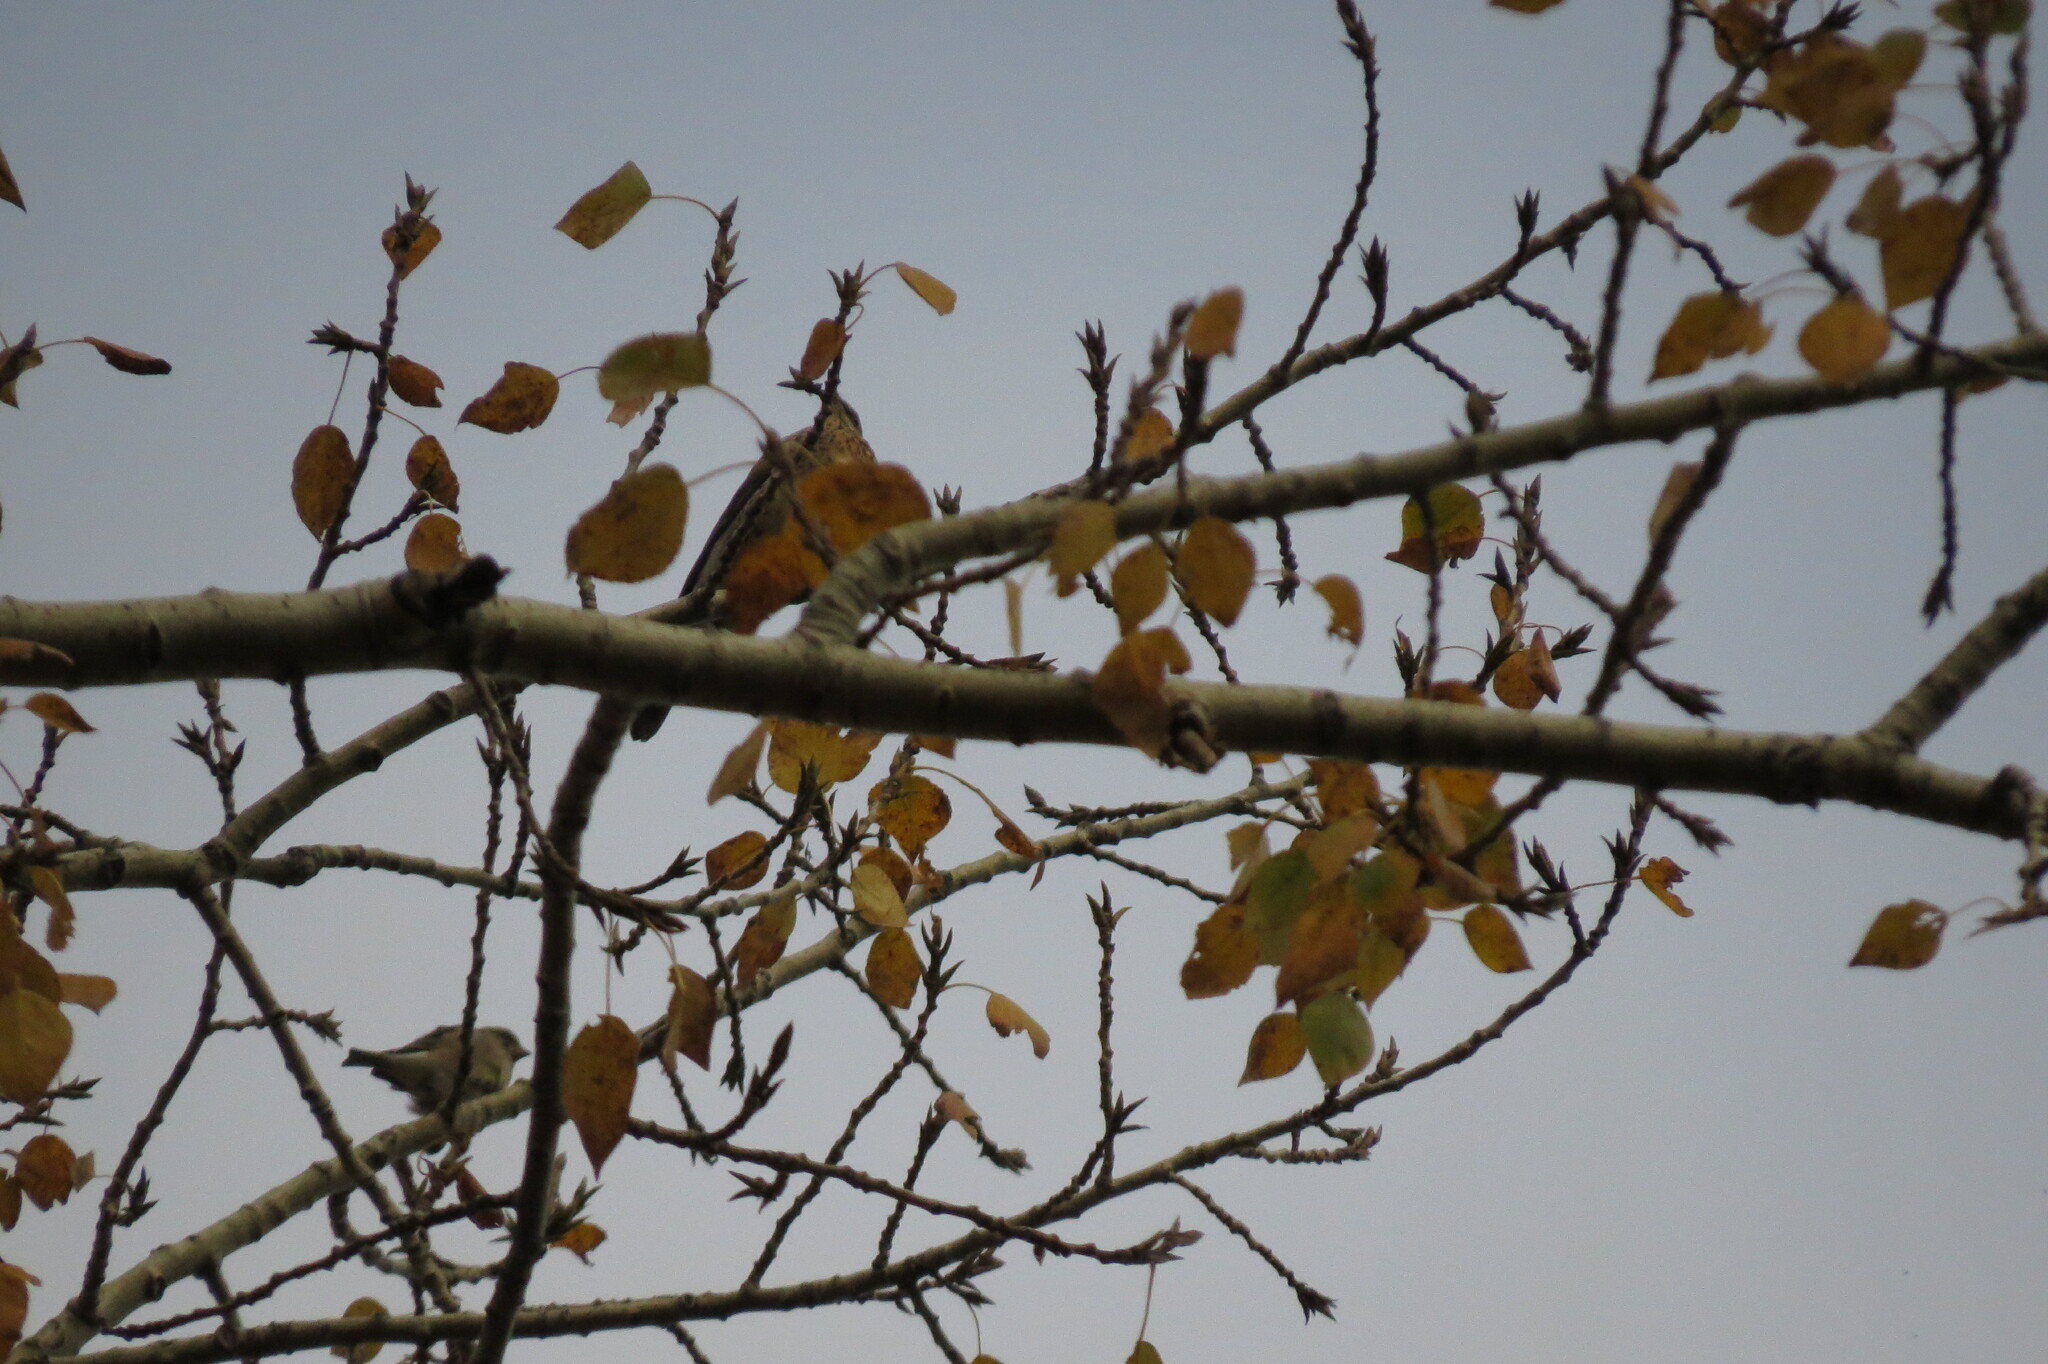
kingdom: Animalia
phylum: Chordata
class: Aves
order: Passeriformes
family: Turdidae
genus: Turdus
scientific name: Turdus pilaris
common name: Fieldfare
